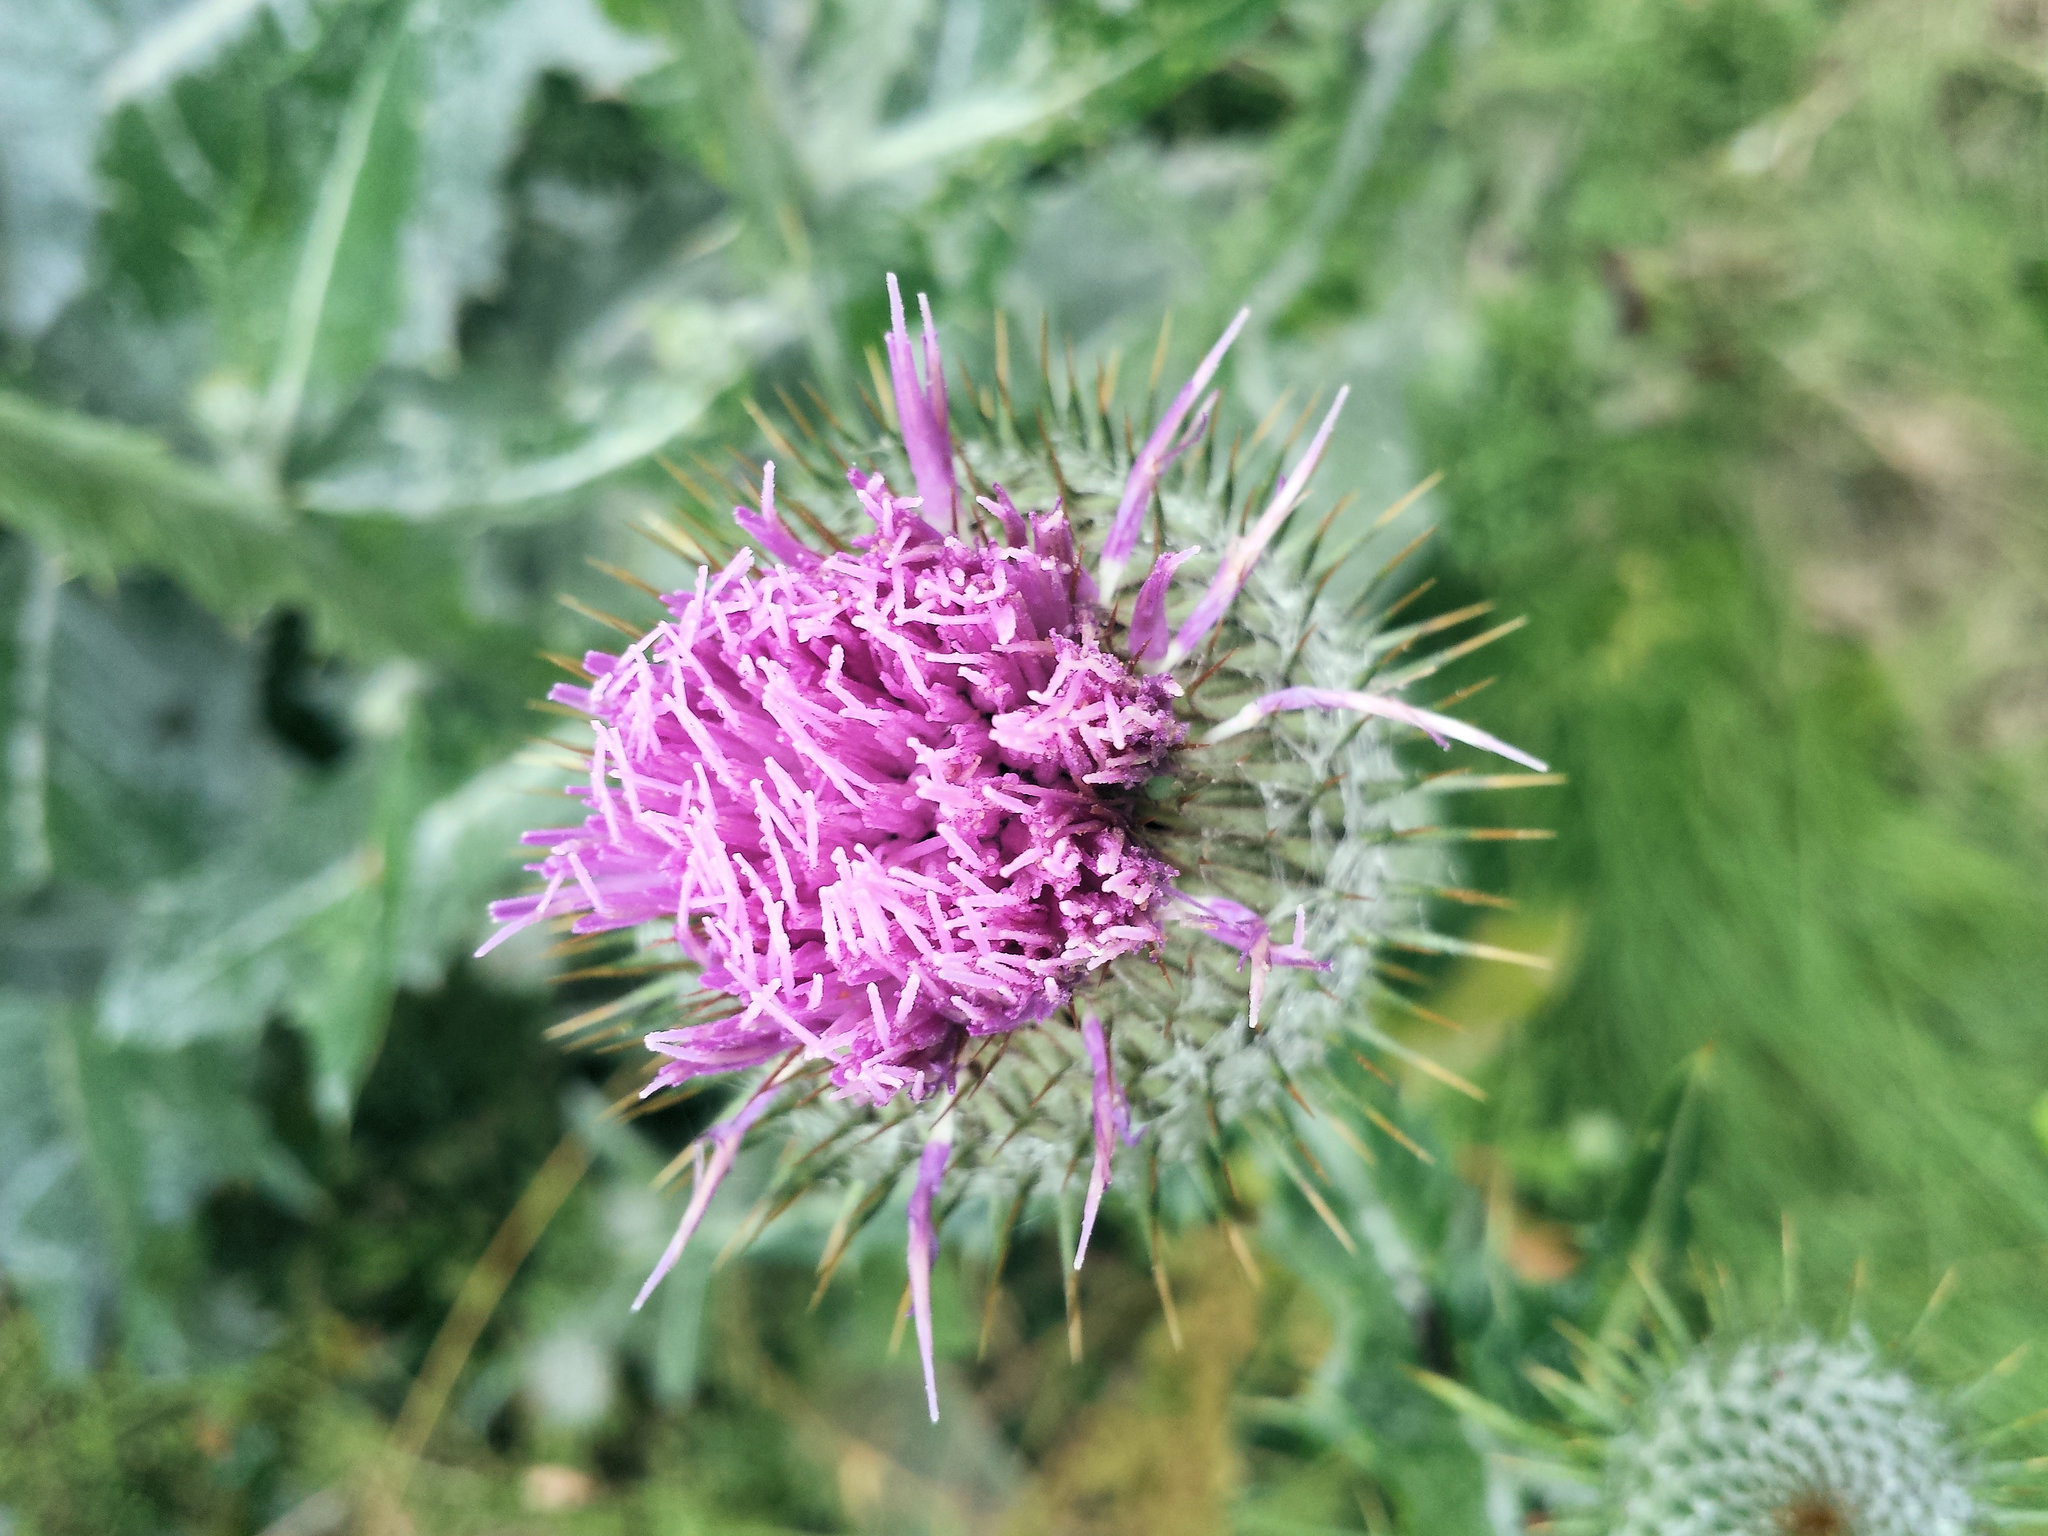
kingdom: Plantae
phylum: Tracheophyta
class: Magnoliopsida
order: Asterales
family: Asteraceae
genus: Onopordum
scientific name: Onopordum acanthium
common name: Scotch thistle
